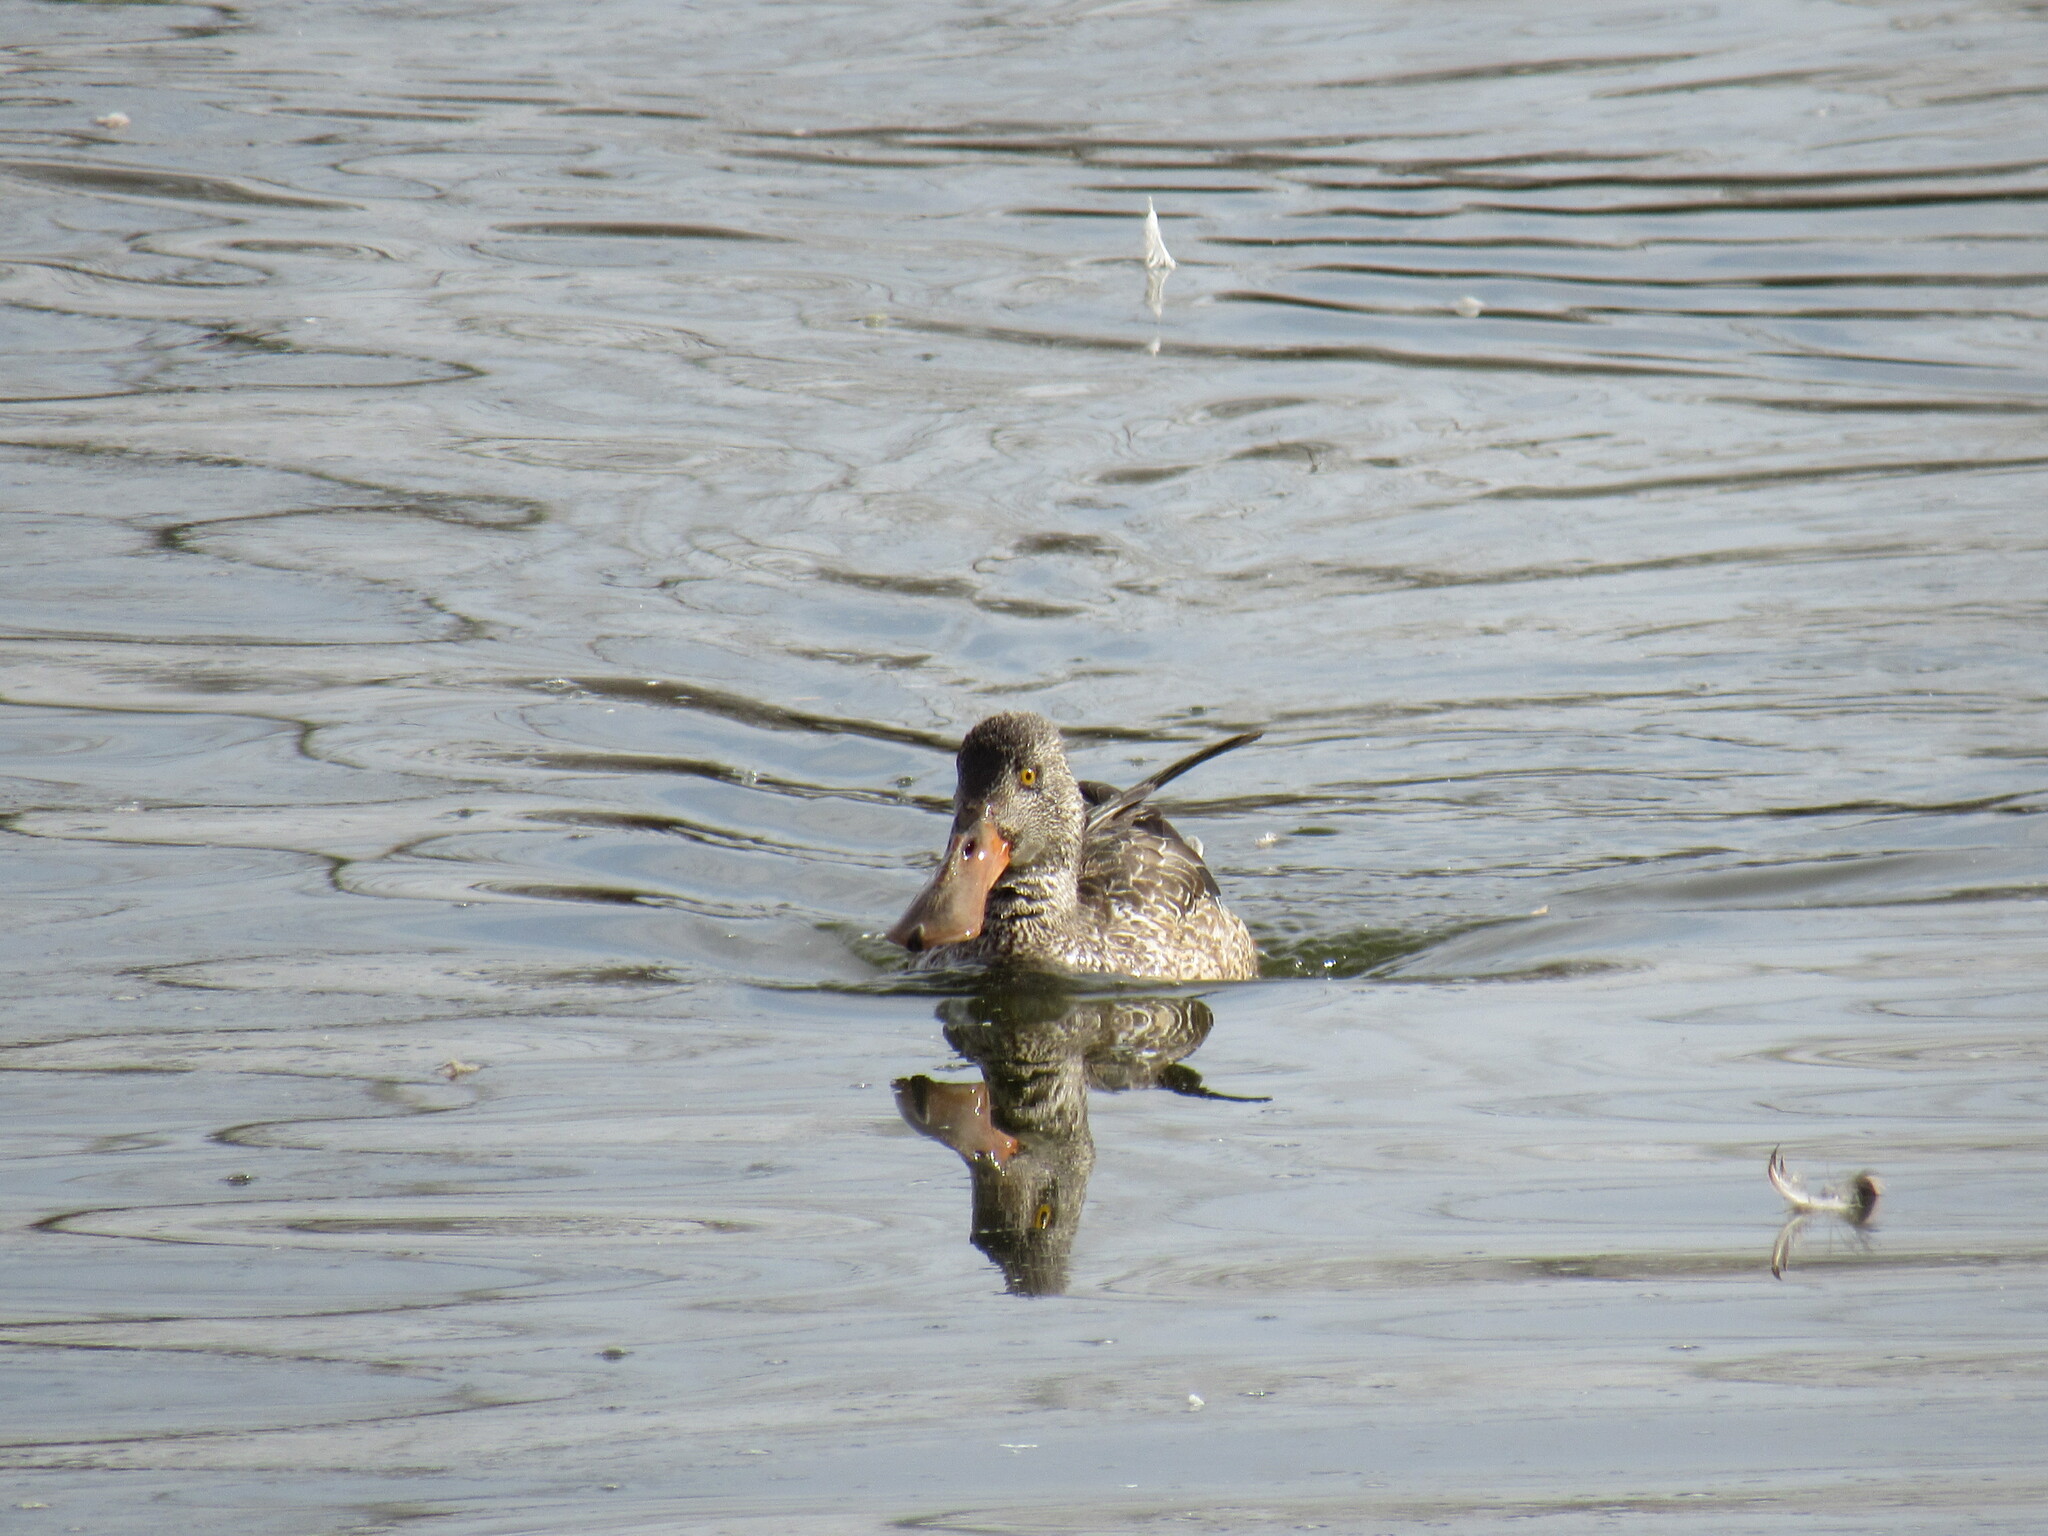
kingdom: Animalia
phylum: Chordata
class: Aves
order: Anseriformes
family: Anatidae
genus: Spatula
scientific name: Spatula clypeata
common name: Northern shoveler
